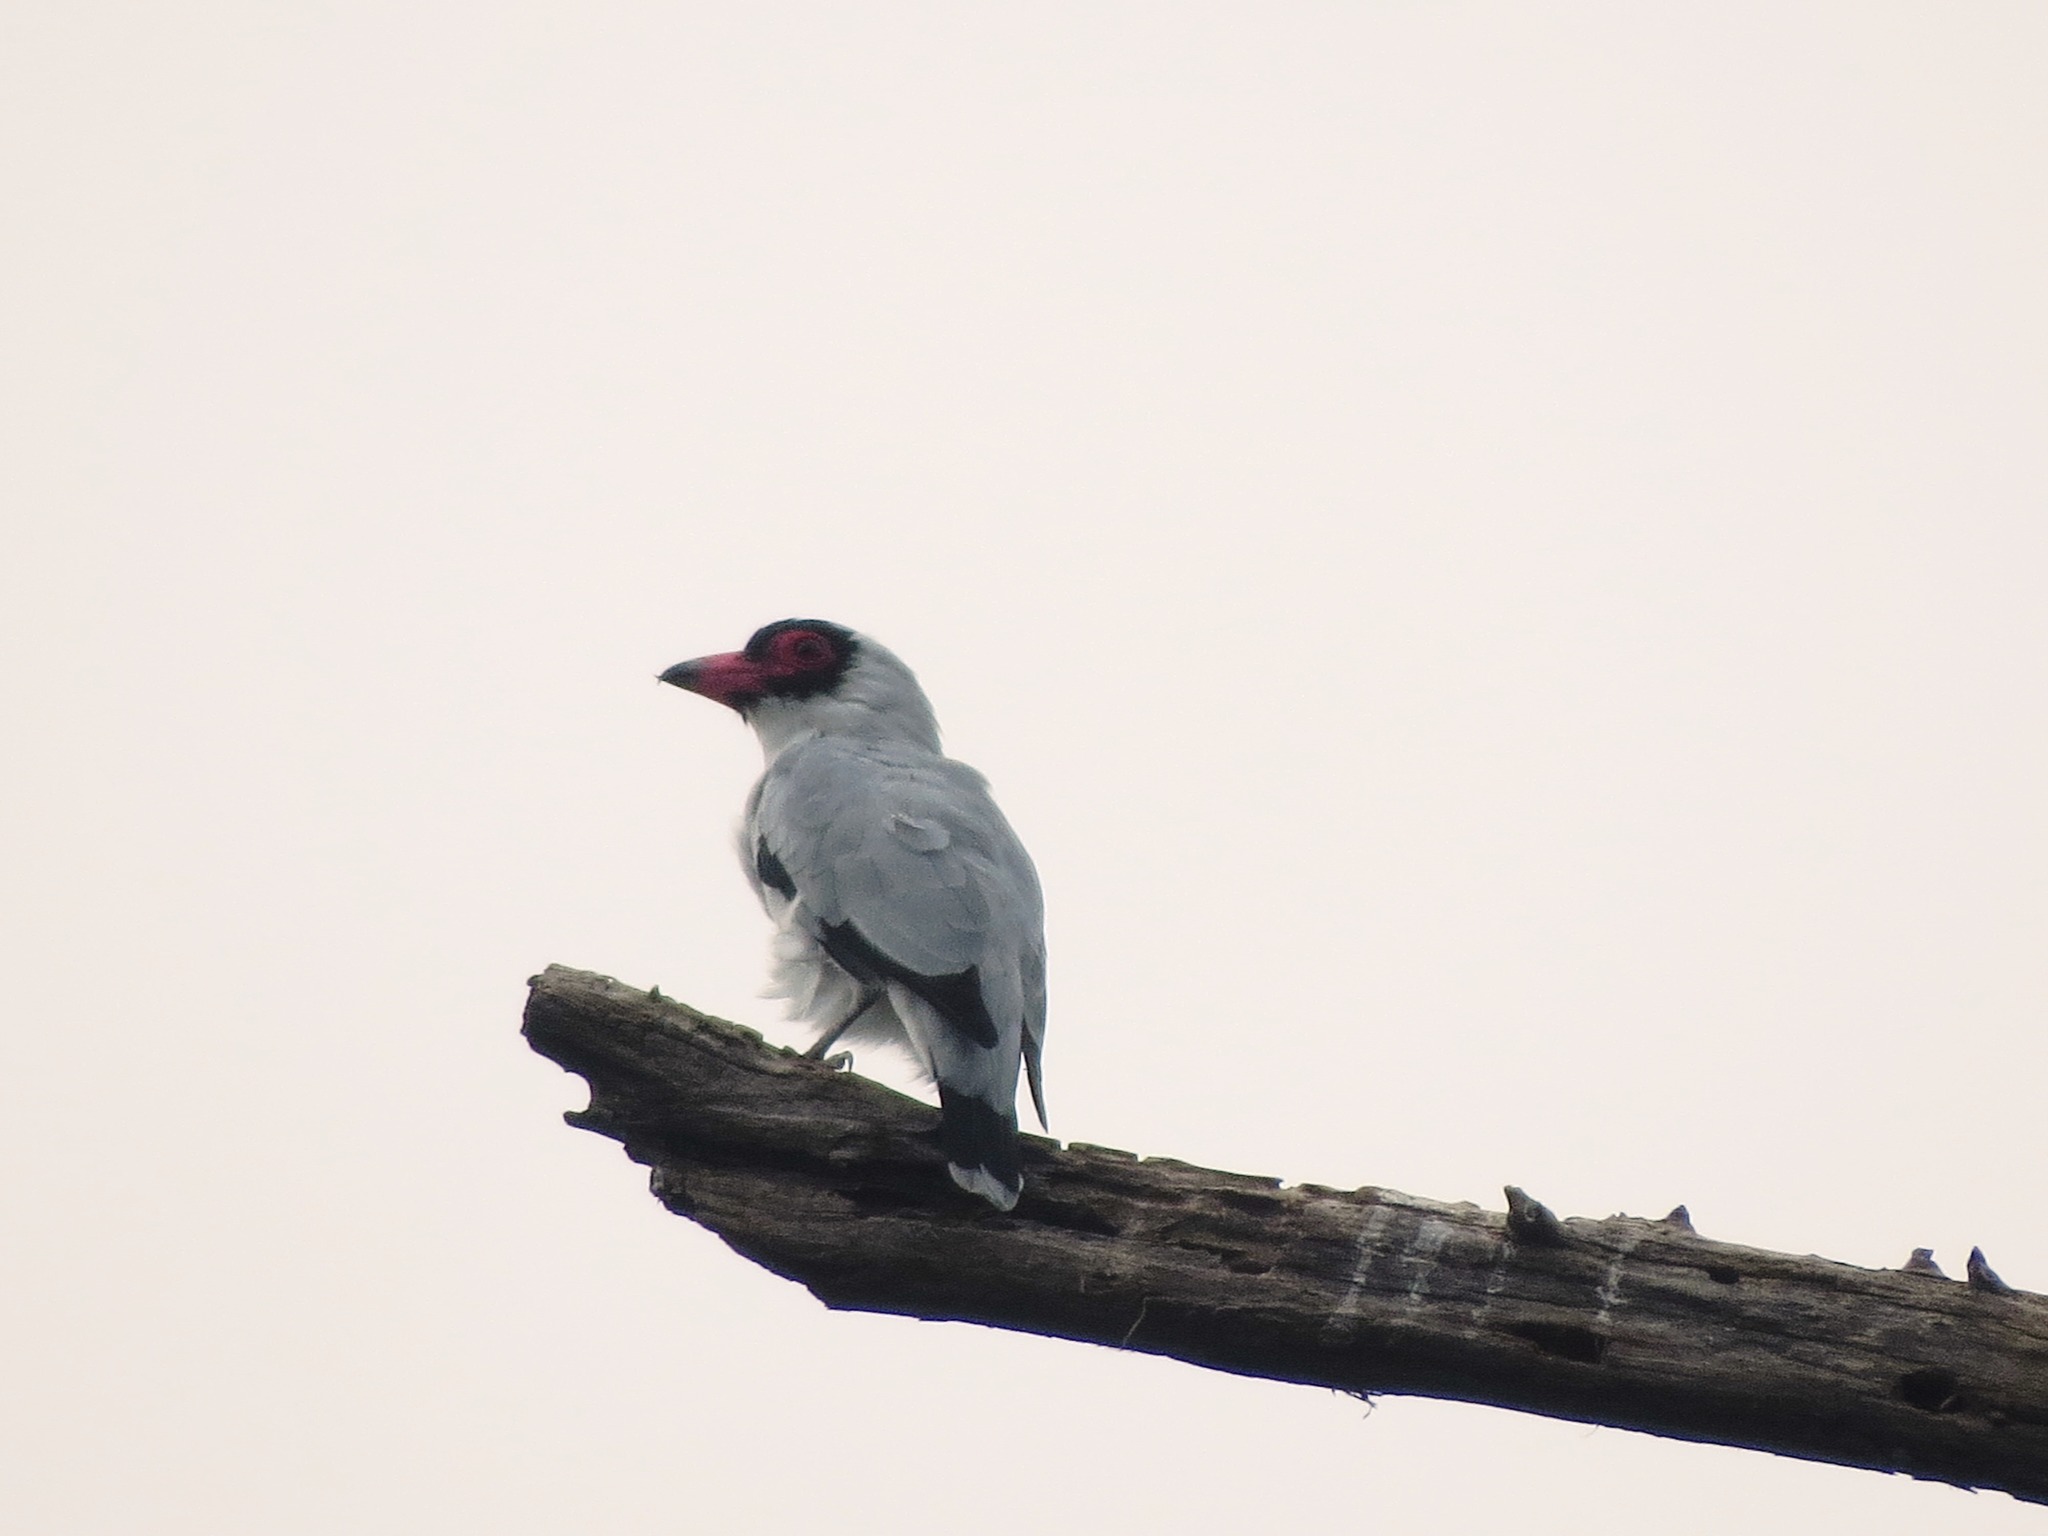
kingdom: Animalia
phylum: Chordata
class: Aves
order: Passeriformes
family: Cotingidae
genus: Tityra
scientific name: Tityra semifasciata
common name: Masked tityra
